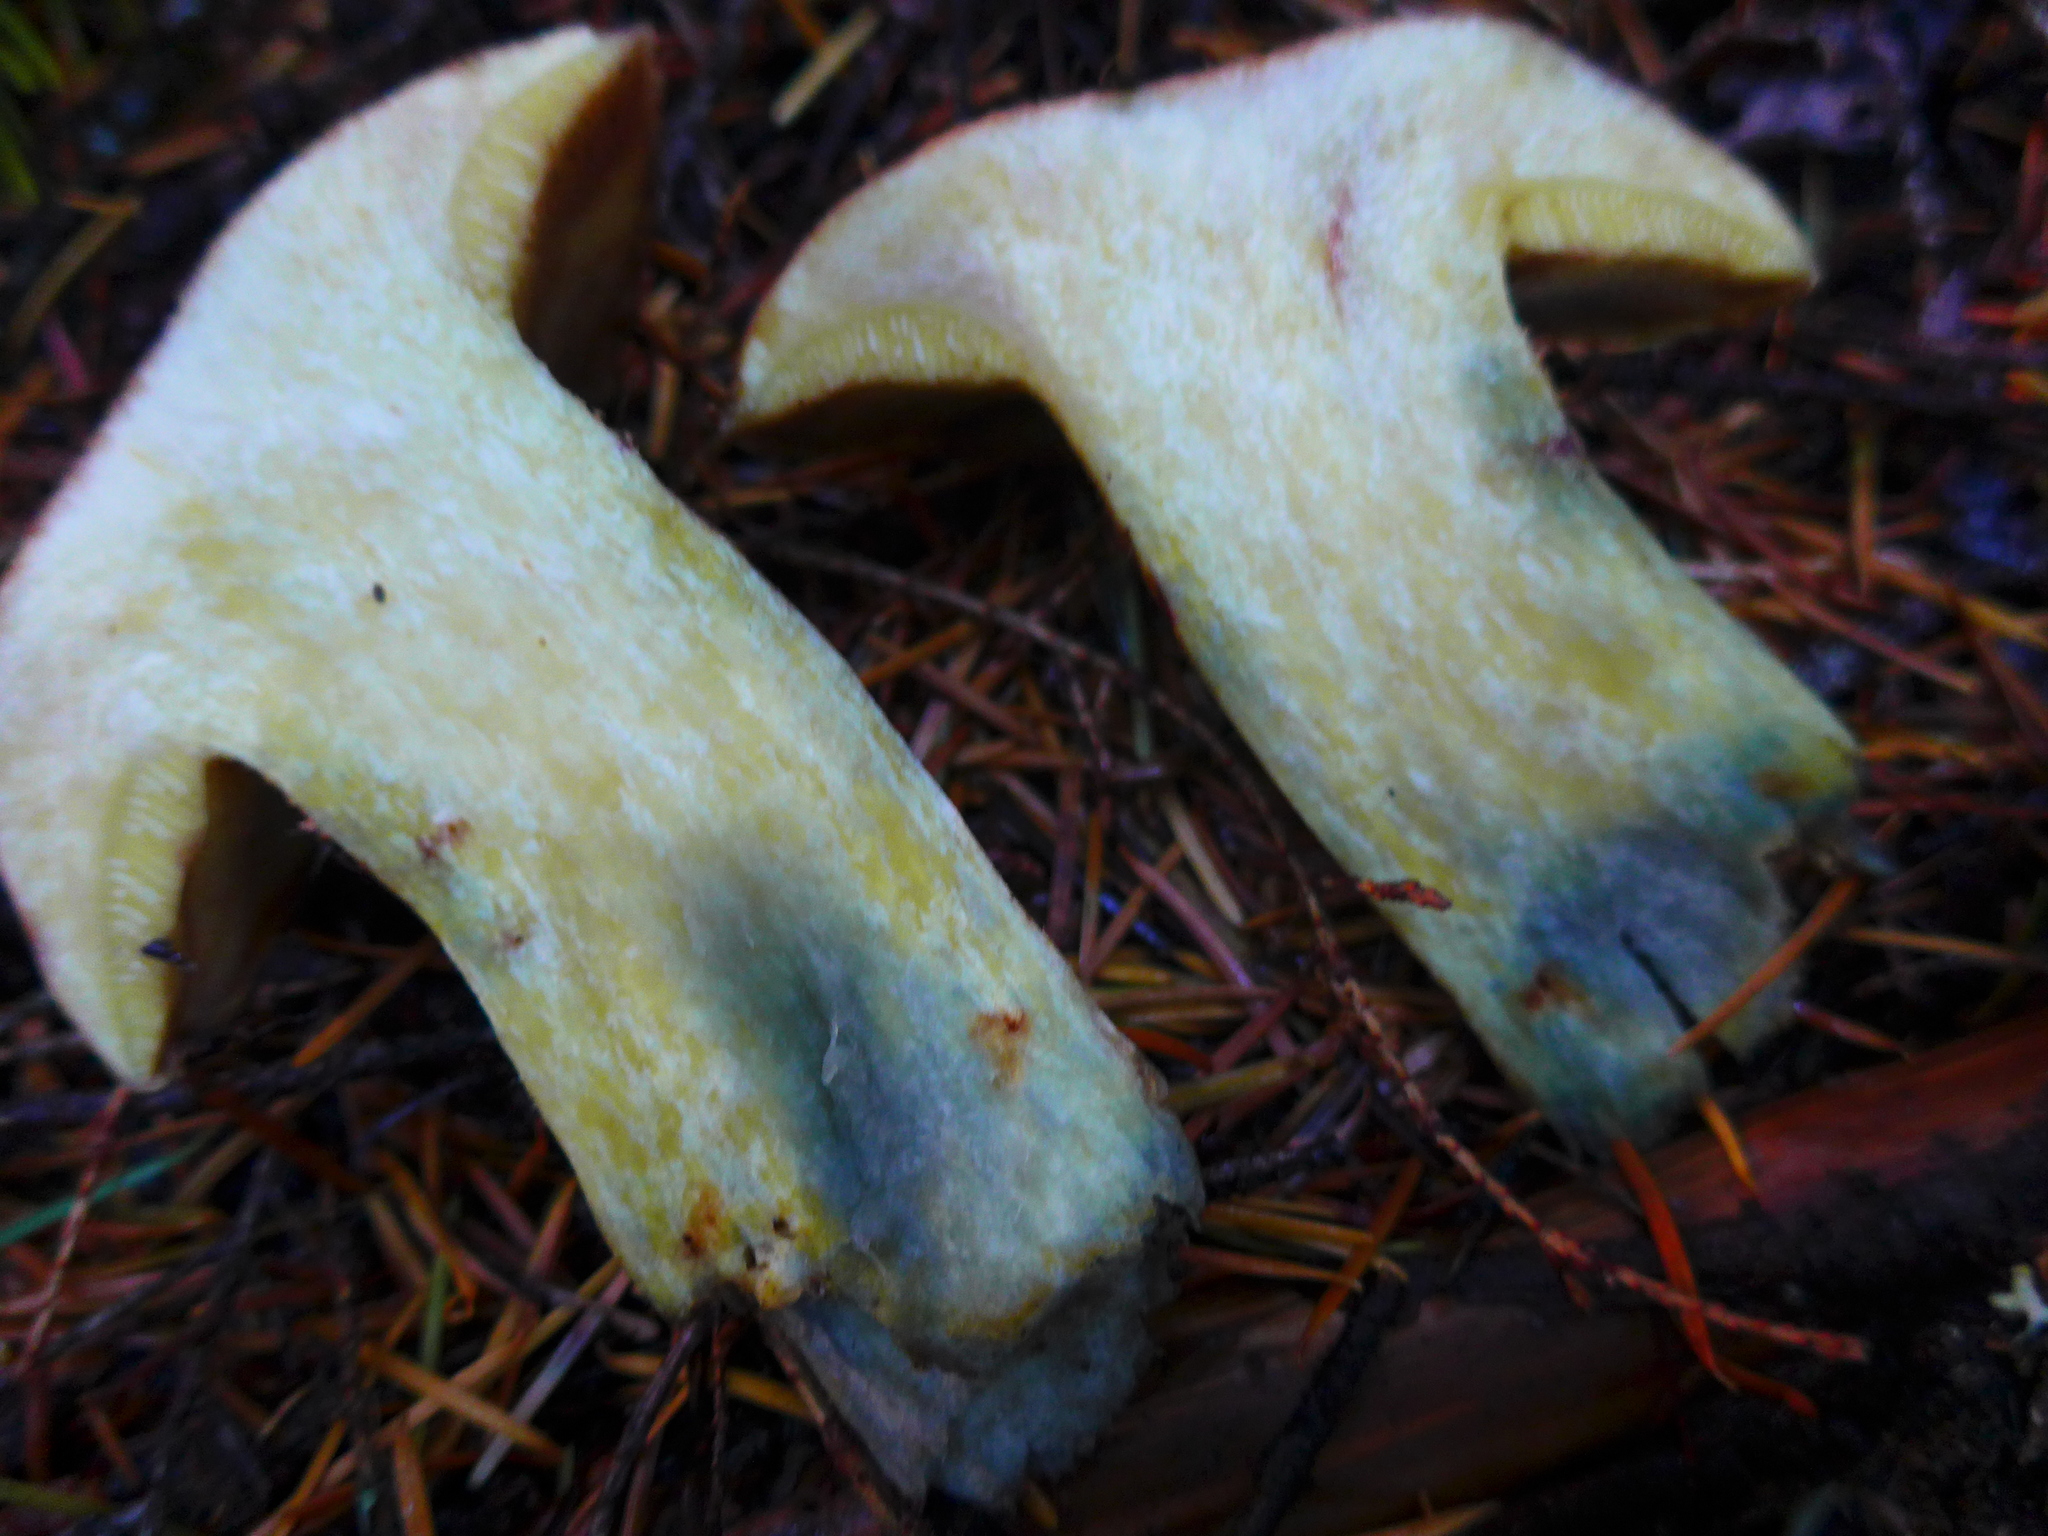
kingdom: Fungi
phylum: Basidiomycota
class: Agaricomycetes
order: Boletales
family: Suillaceae
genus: Suillus
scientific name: Suillus ponderosus
